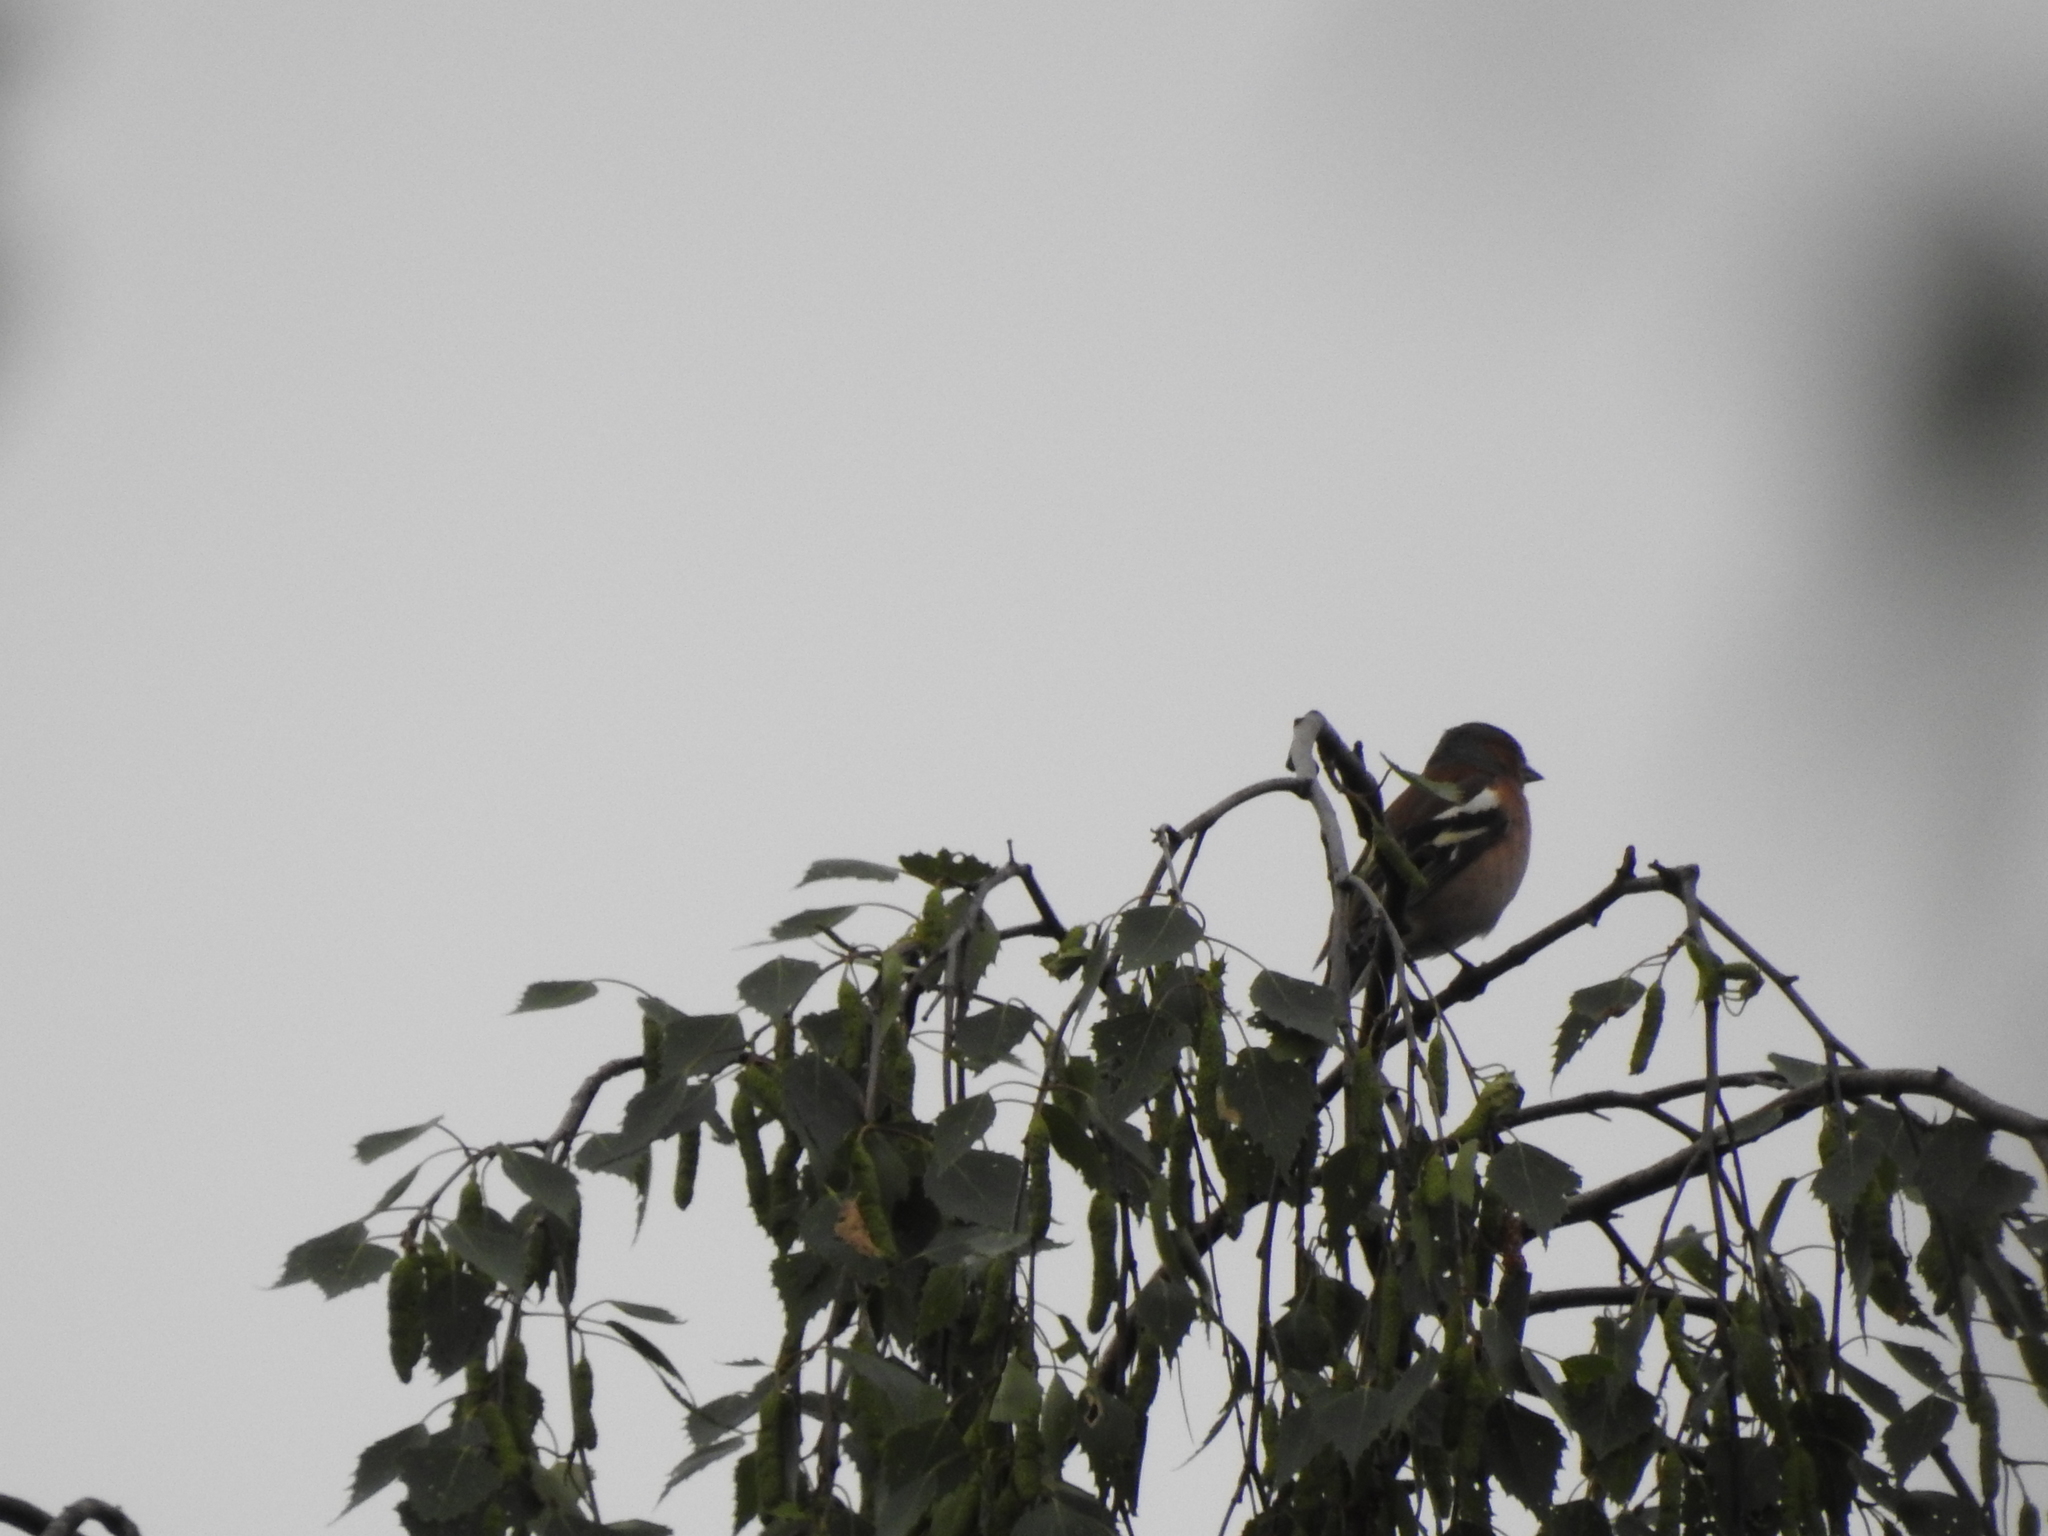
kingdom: Animalia
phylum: Chordata
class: Aves
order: Passeriformes
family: Fringillidae
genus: Fringilla
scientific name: Fringilla coelebs
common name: Common chaffinch
